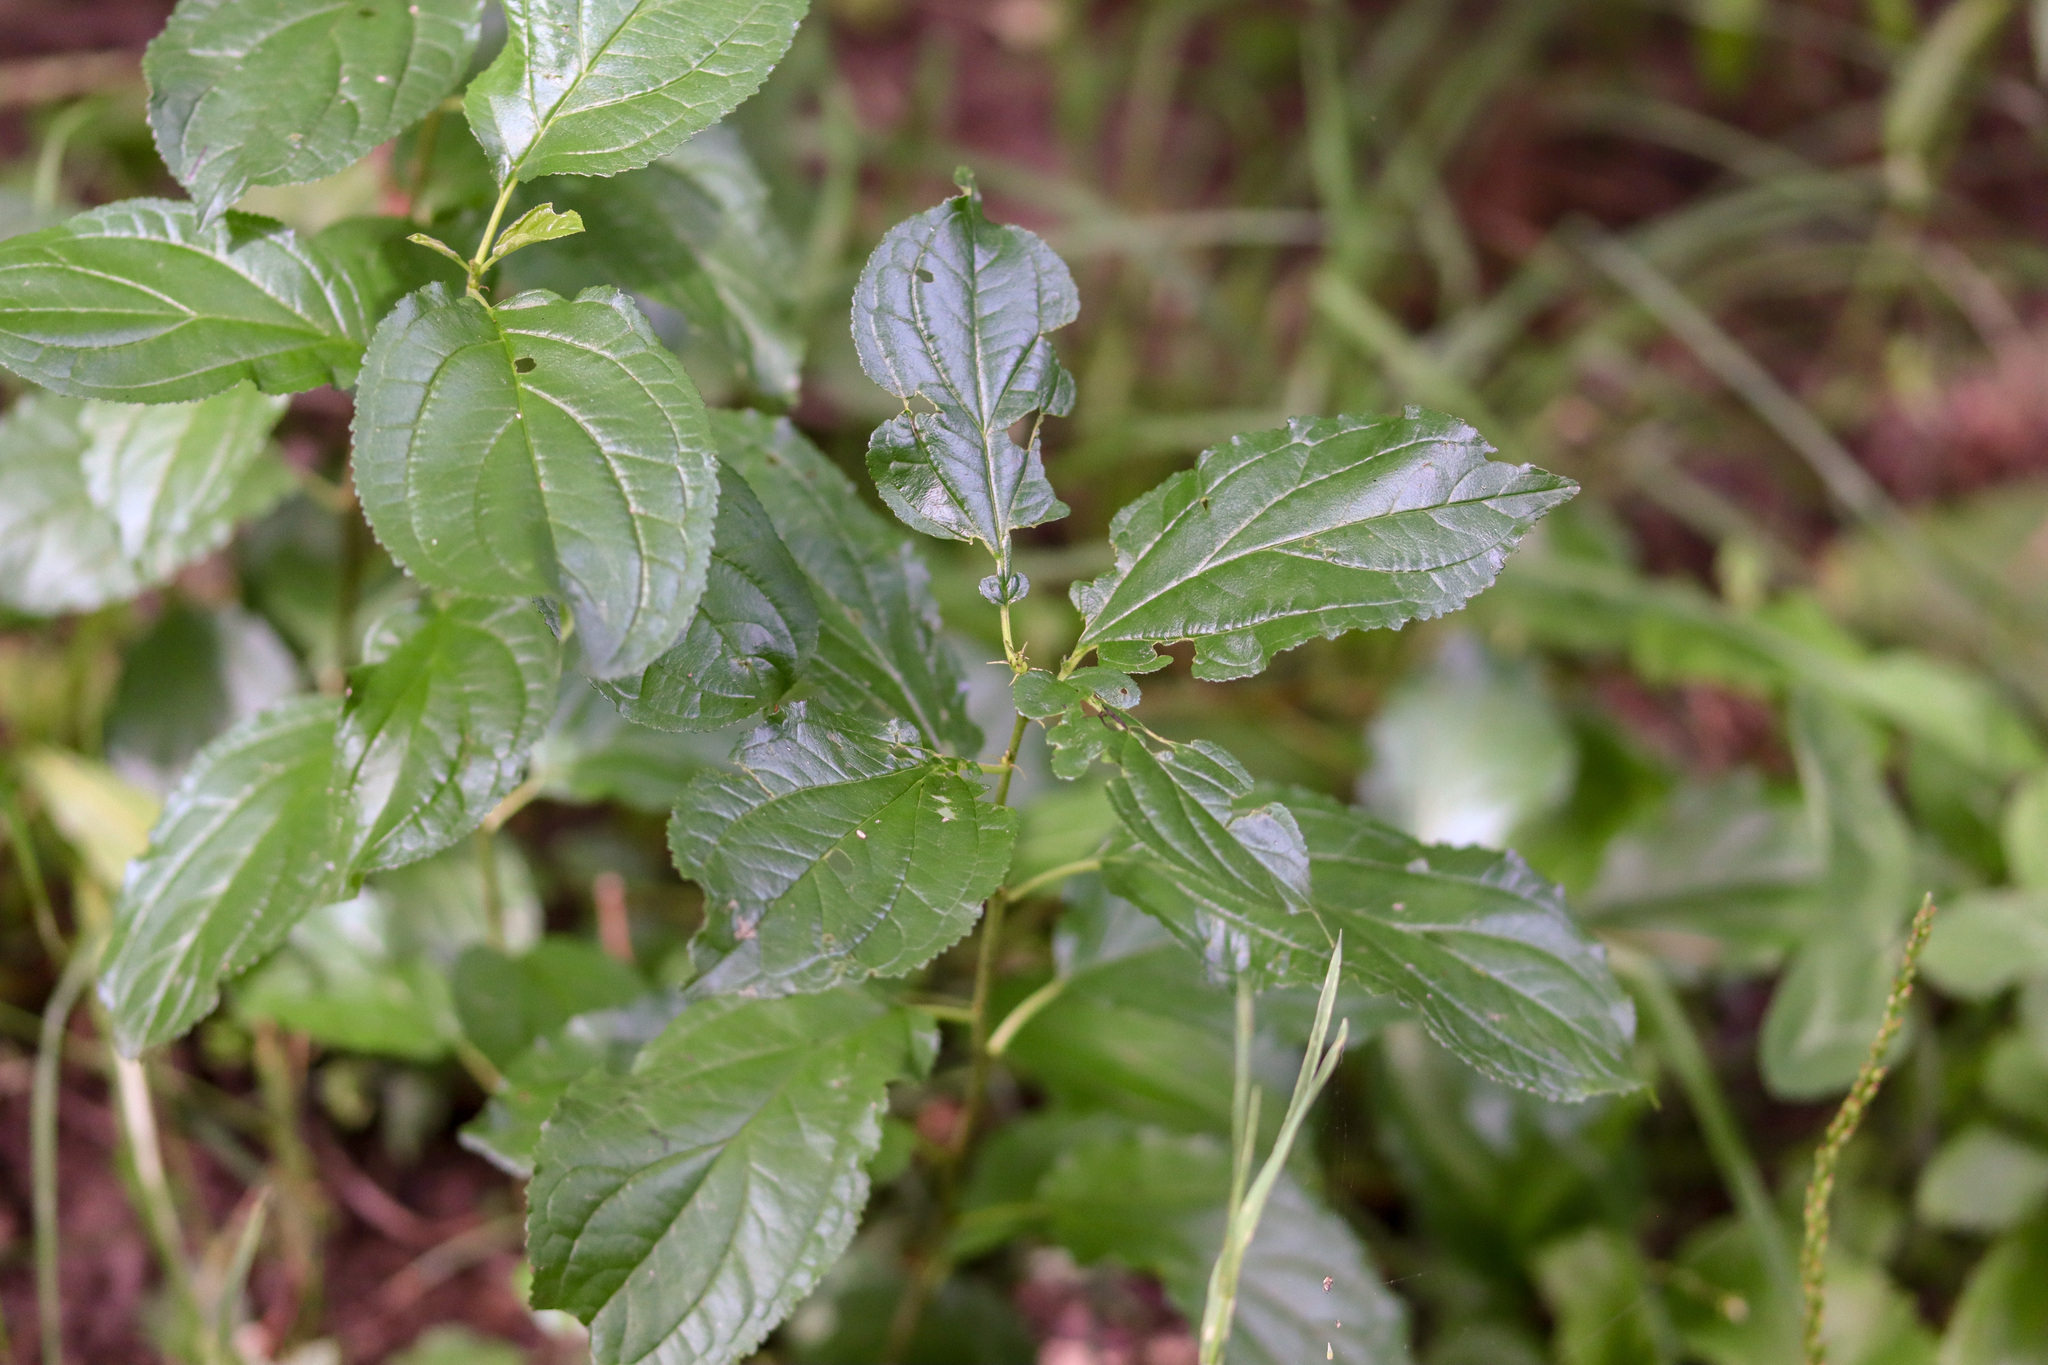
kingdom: Plantae
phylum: Tracheophyta
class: Magnoliopsida
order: Rosales
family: Rhamnaceae
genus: Rhamnus
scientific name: Rhamnus cathartica
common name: Common buckthorn
